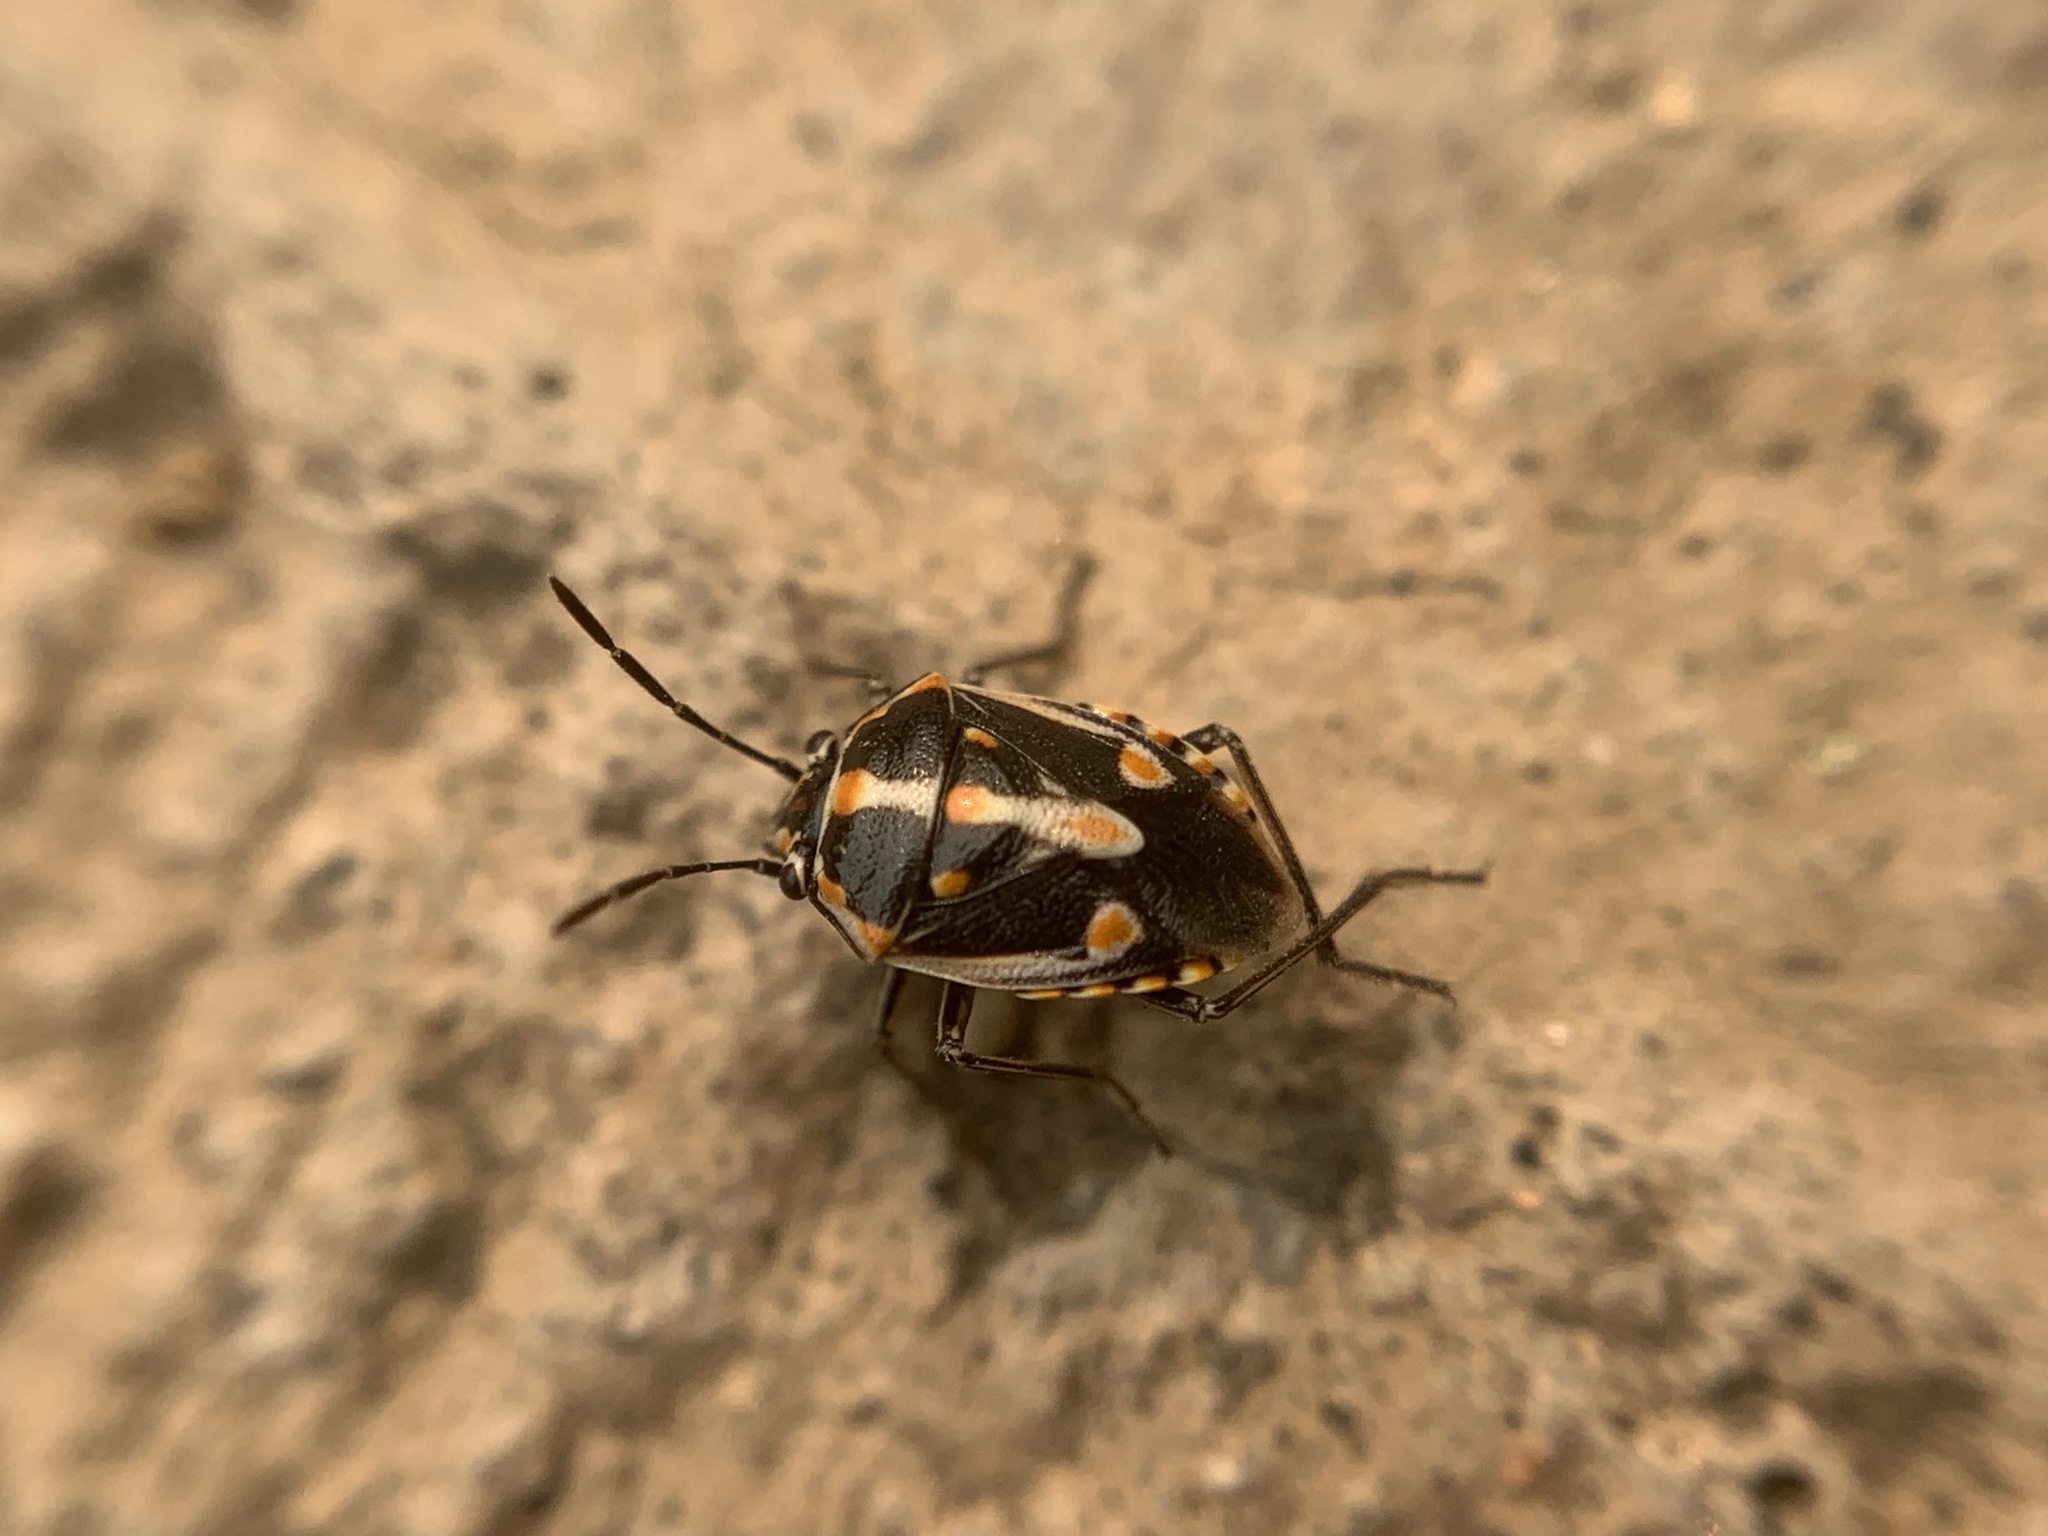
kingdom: Animalia
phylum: Arthropoda
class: Insecta
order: Hemiptera
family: Pentatomidae
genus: Bagrada
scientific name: Bagrada hilaris
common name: Bagrada bug
